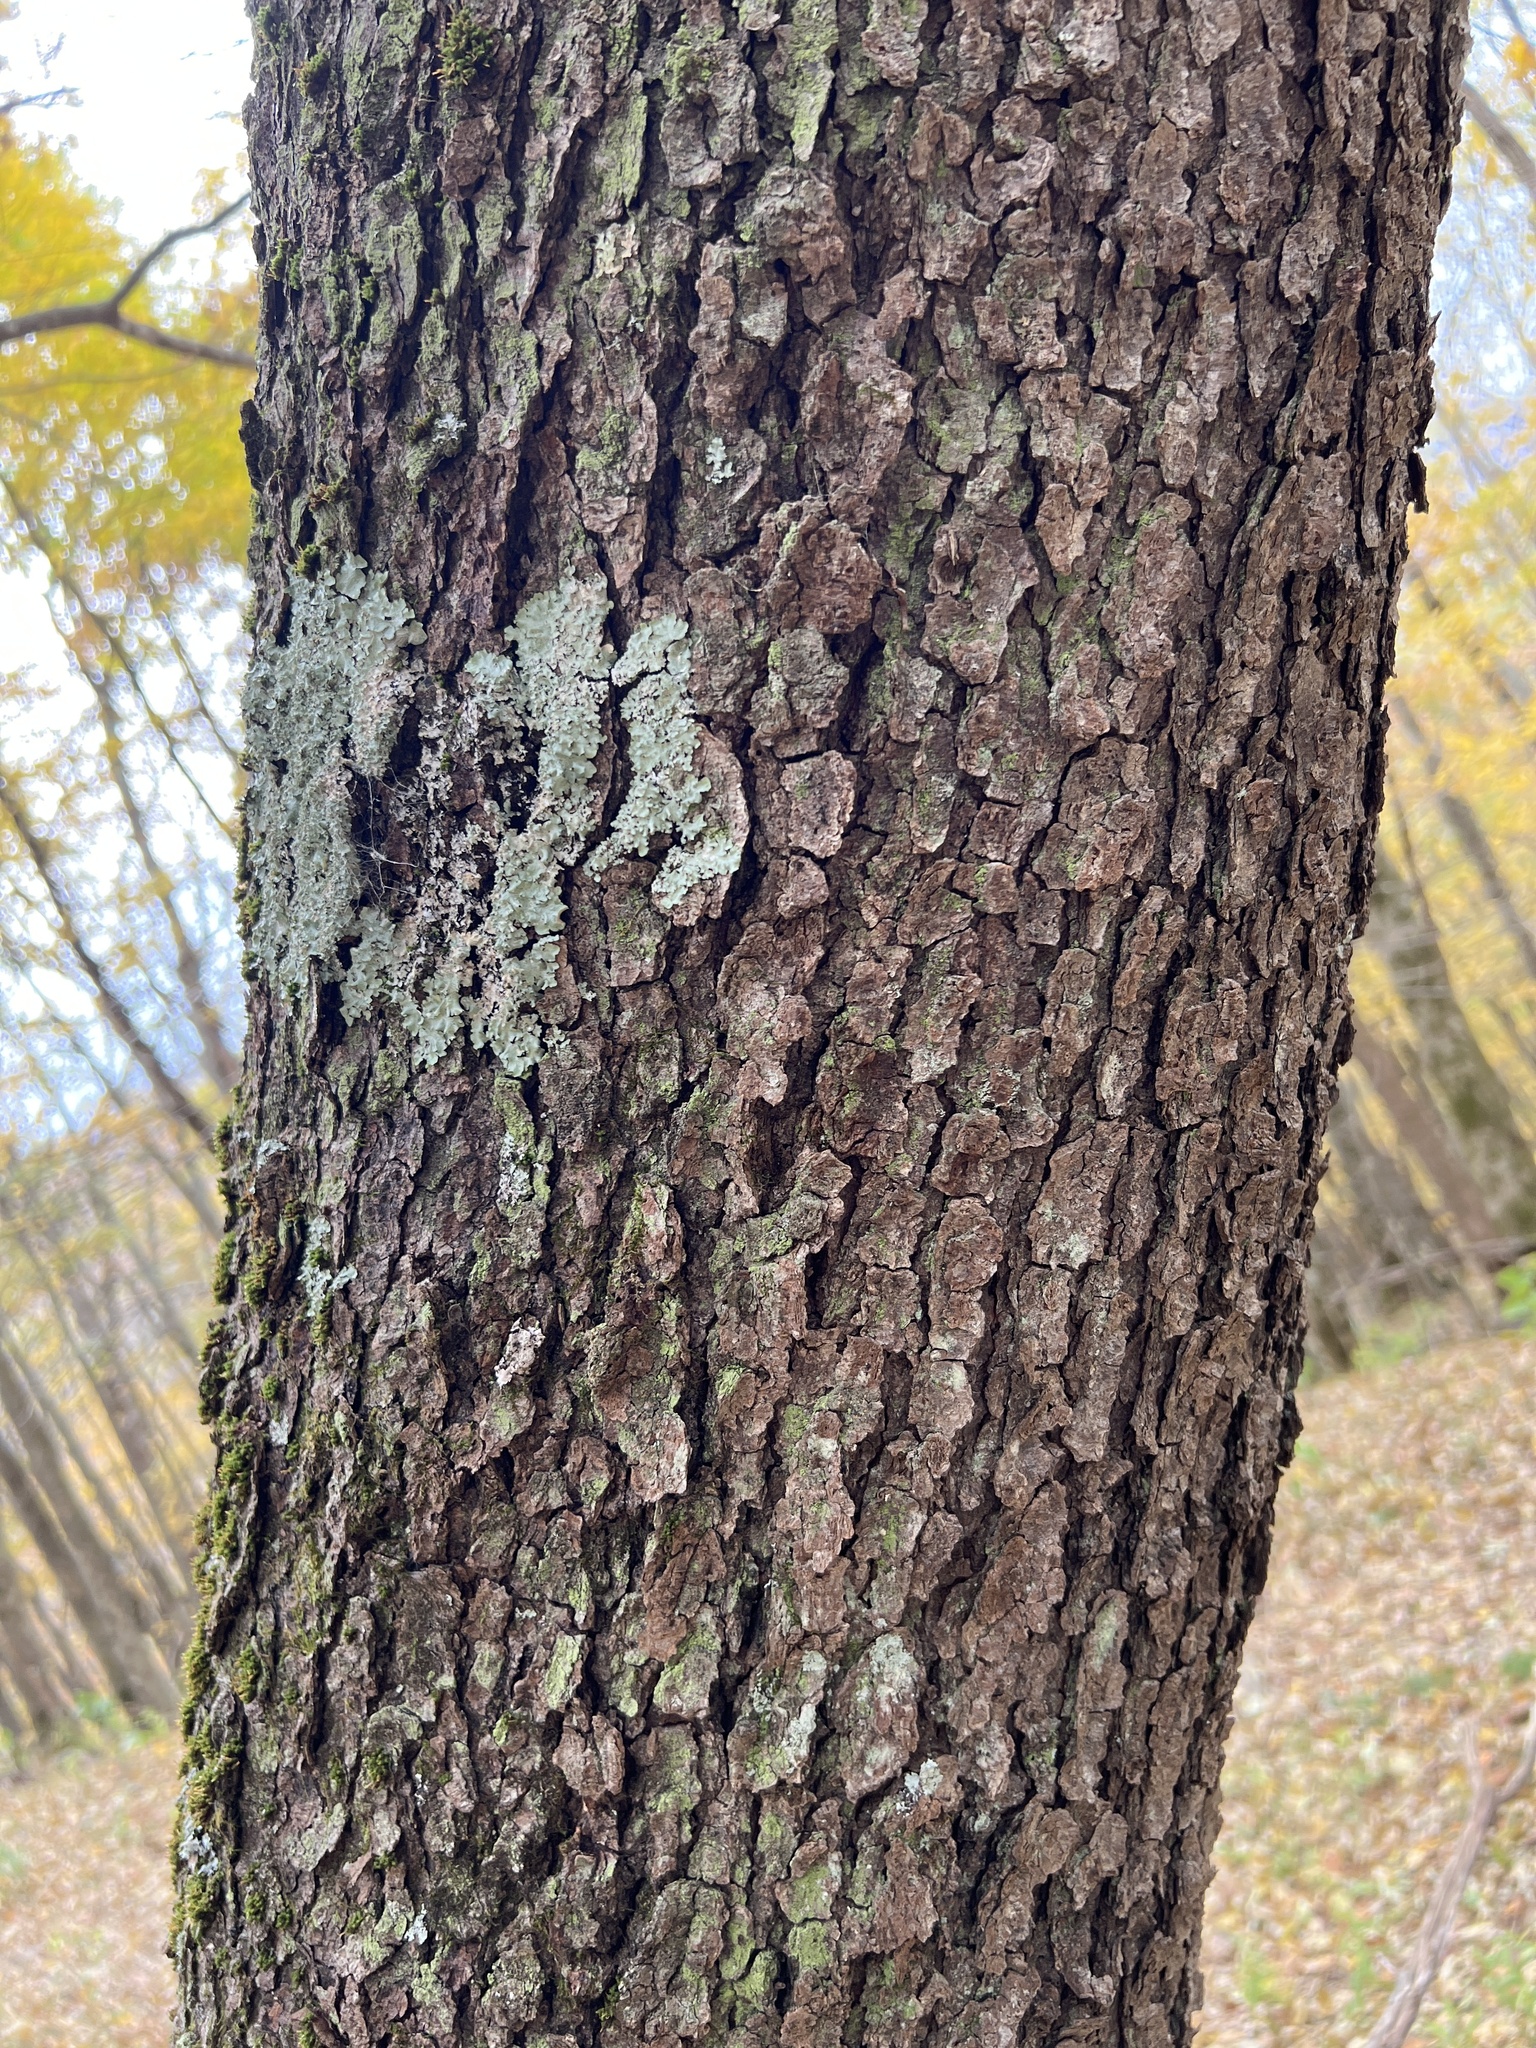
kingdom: Plantae
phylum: Tracheophyta
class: Magnoliopsida
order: Rosales
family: Rosaceae
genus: Prunus
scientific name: Prunus serotina
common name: Black cherry
